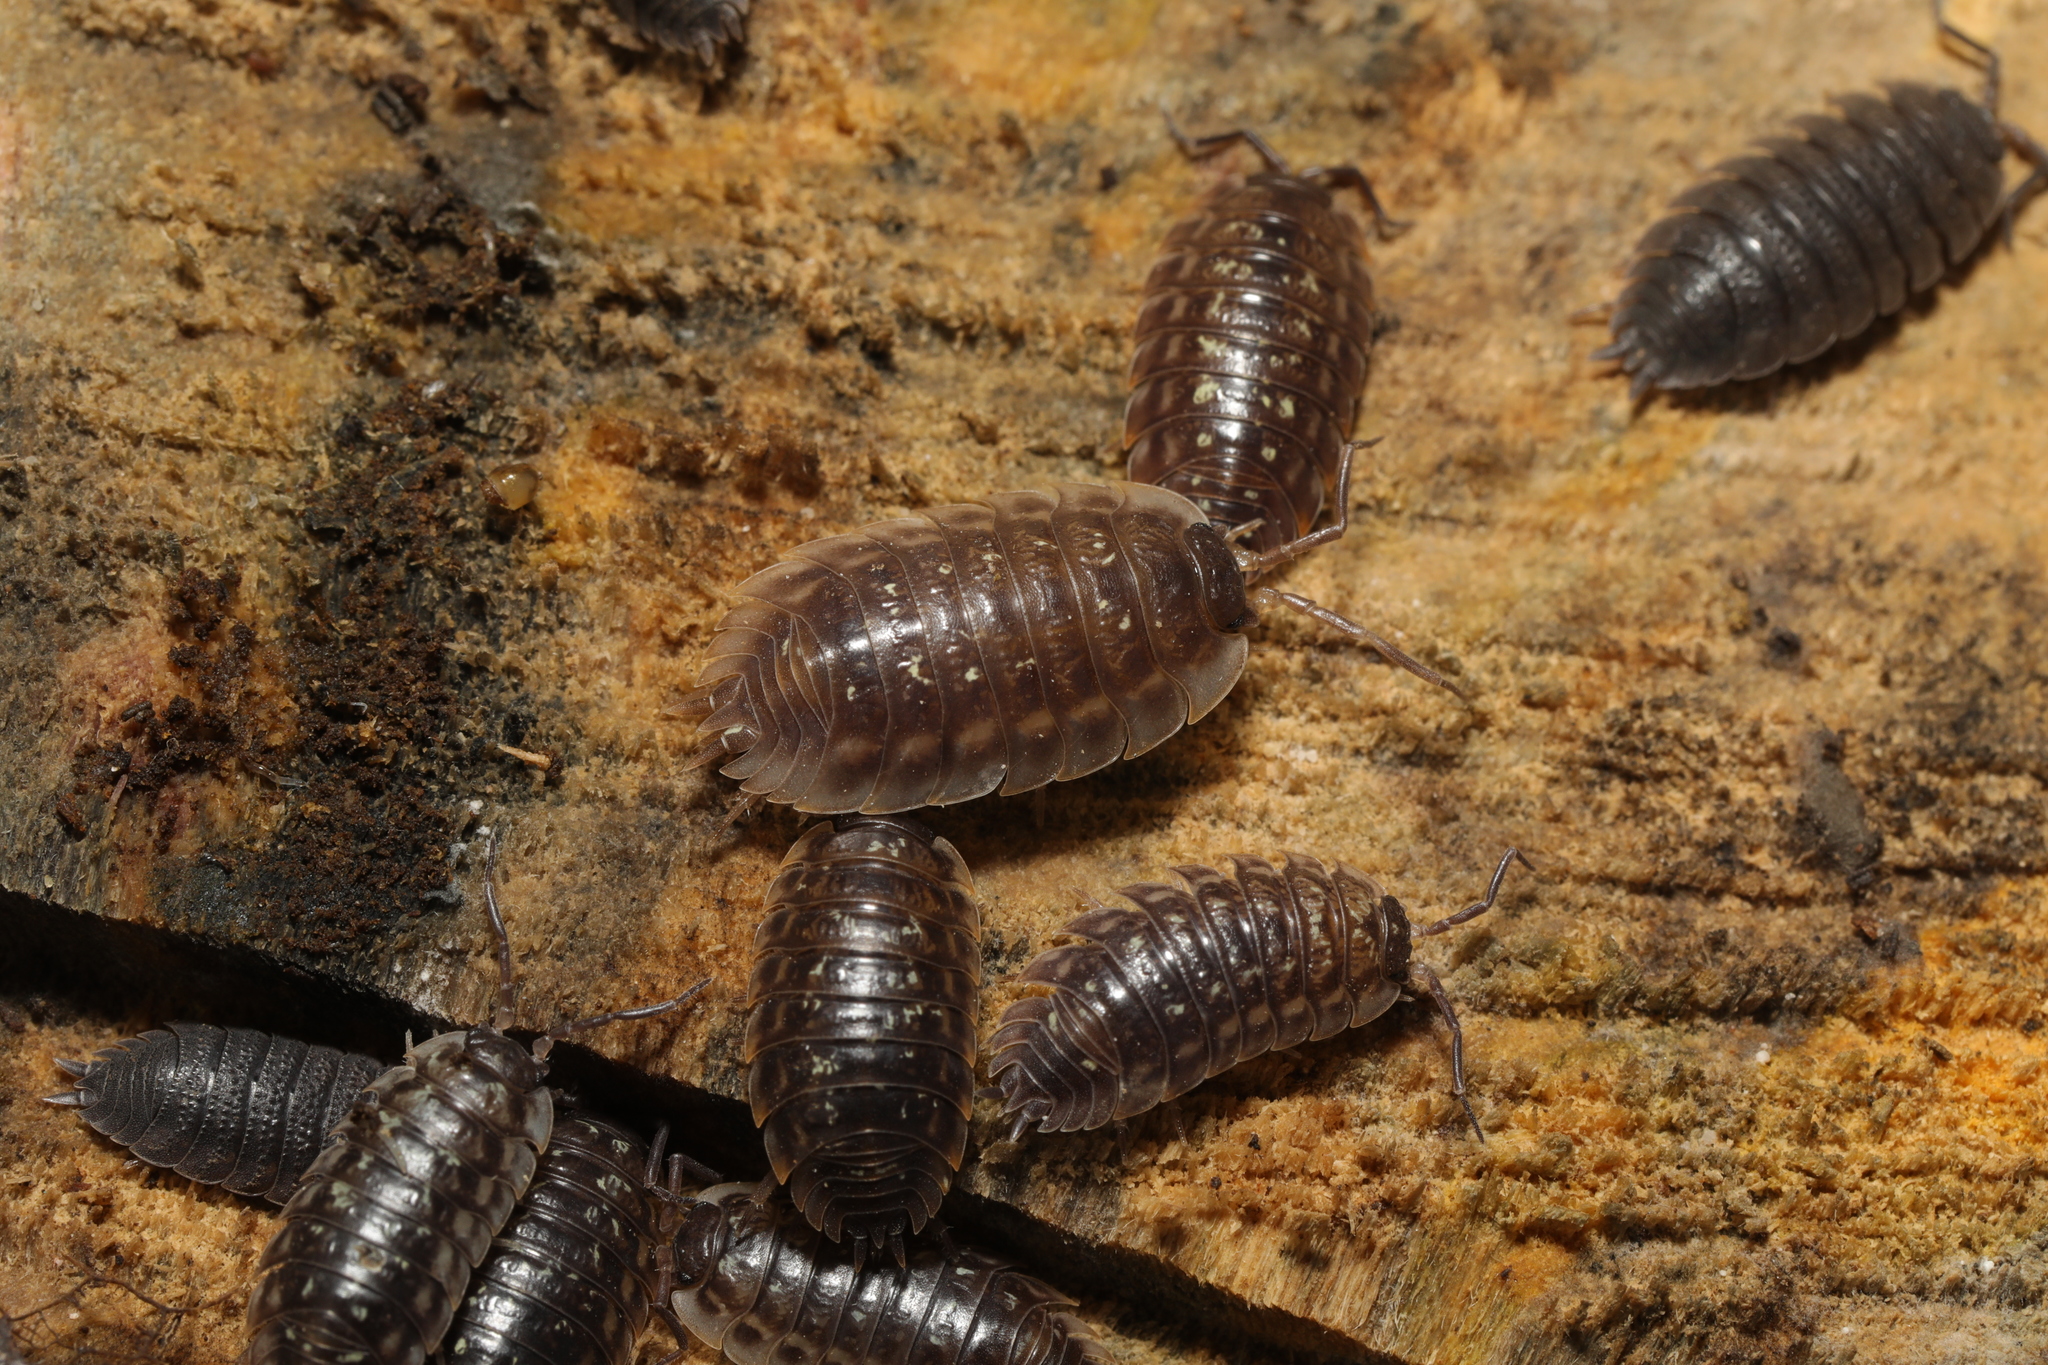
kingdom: Animalia
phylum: Arthropoda
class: Malacostraca
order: Isopoda
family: Oniscidae
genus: Oniscus
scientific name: Oniscus asellus
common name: Common shiny woodlouse
